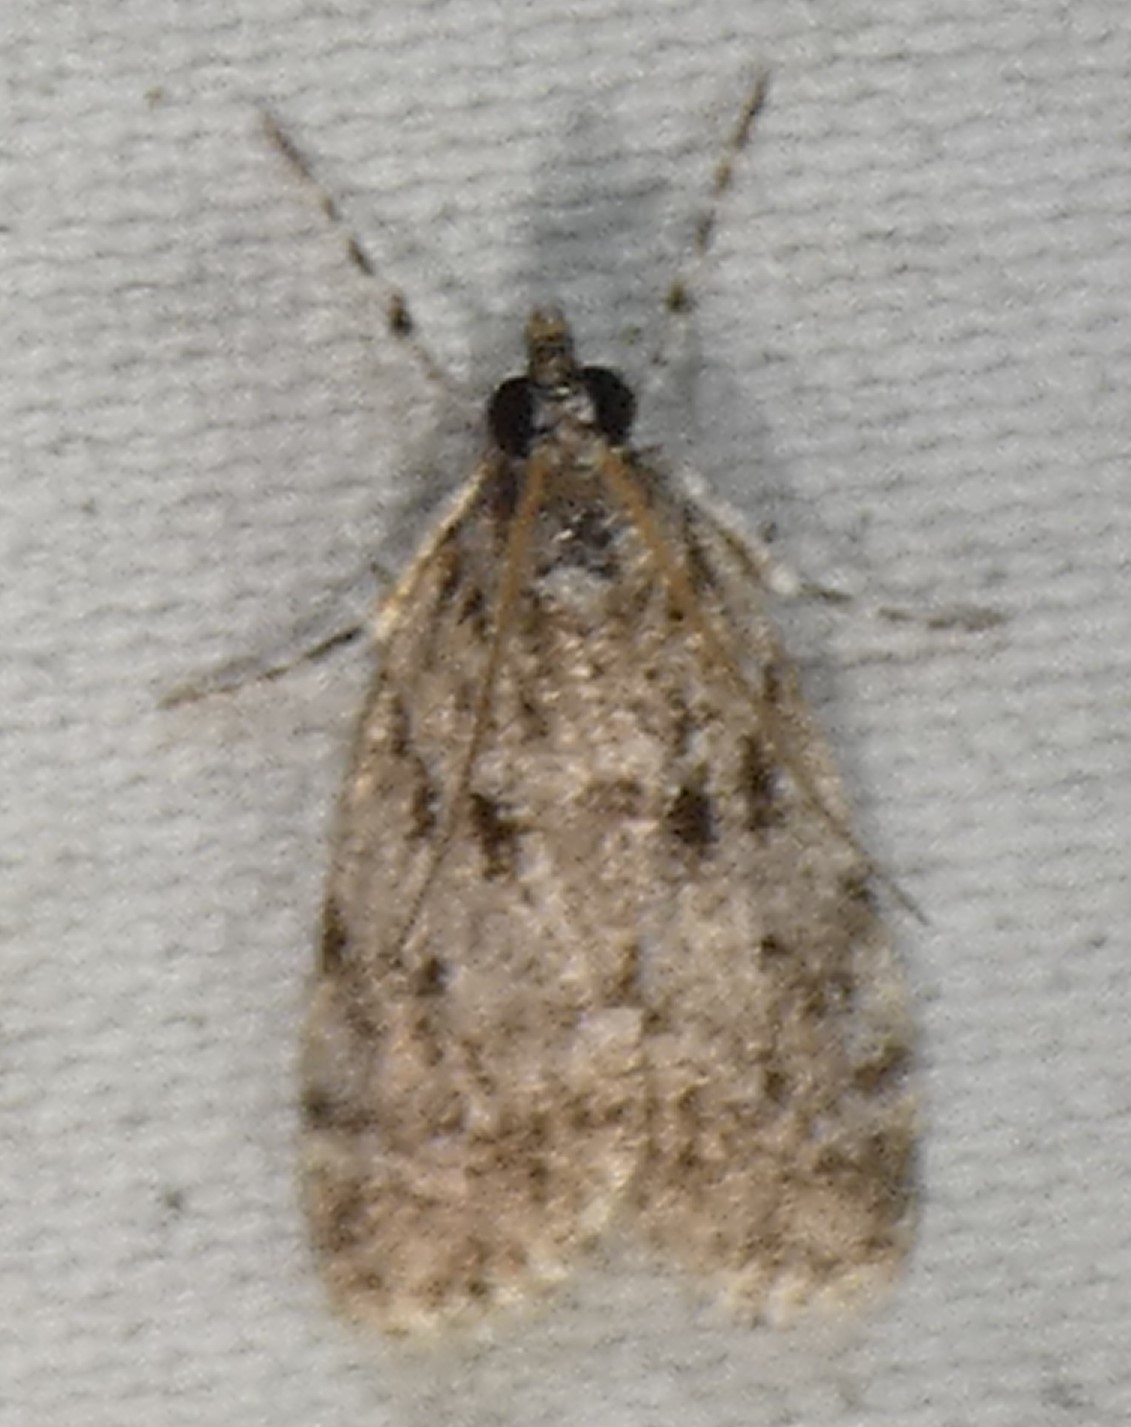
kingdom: Animalia
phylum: Arthropoda
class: Insecta
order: Lepidoptera
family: Crambidae
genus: Scoparia
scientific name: Scoparia basalis
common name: Many-spotted scoparia moth
